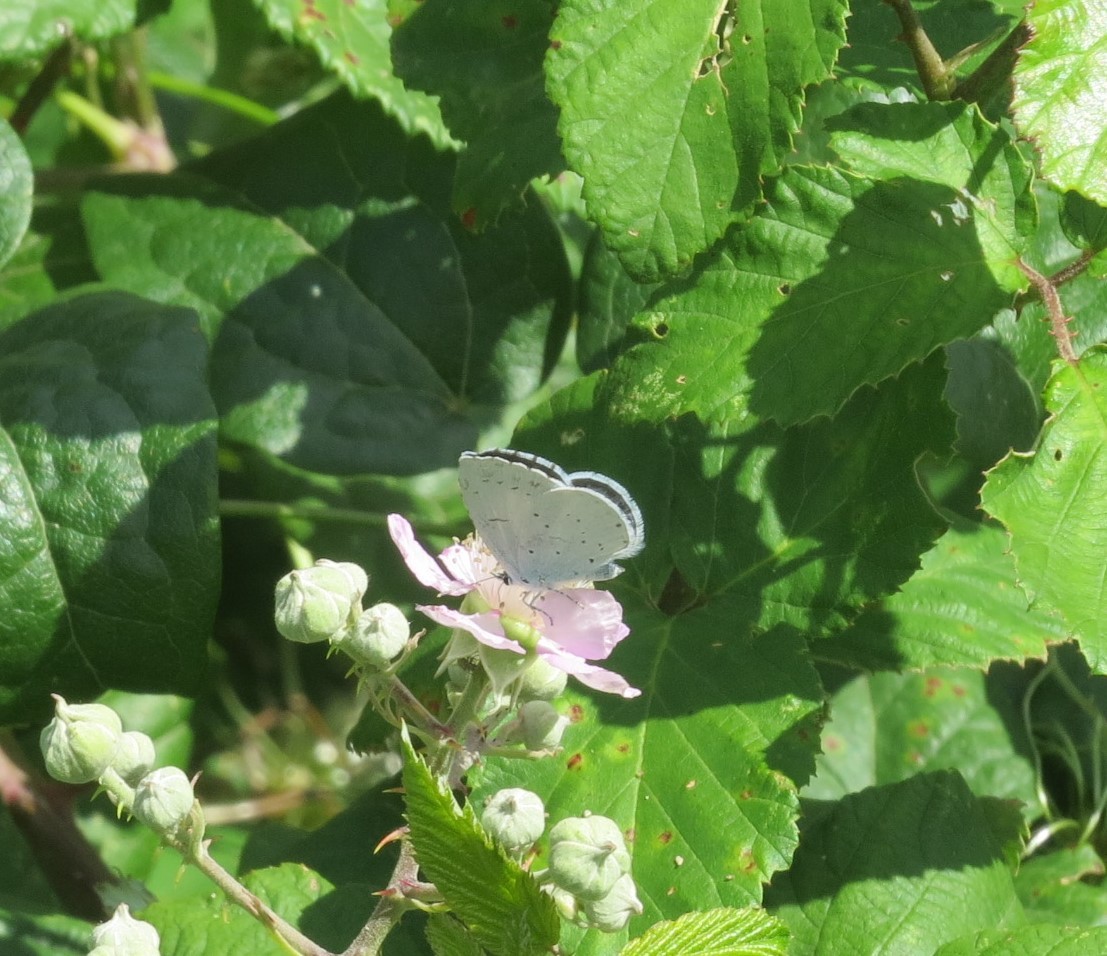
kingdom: Animalia
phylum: Arthropoda
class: Insecta
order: Lepidoptera
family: Lycaenidae
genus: Celastrina
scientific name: Celastrina argiolus
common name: Holly blue
